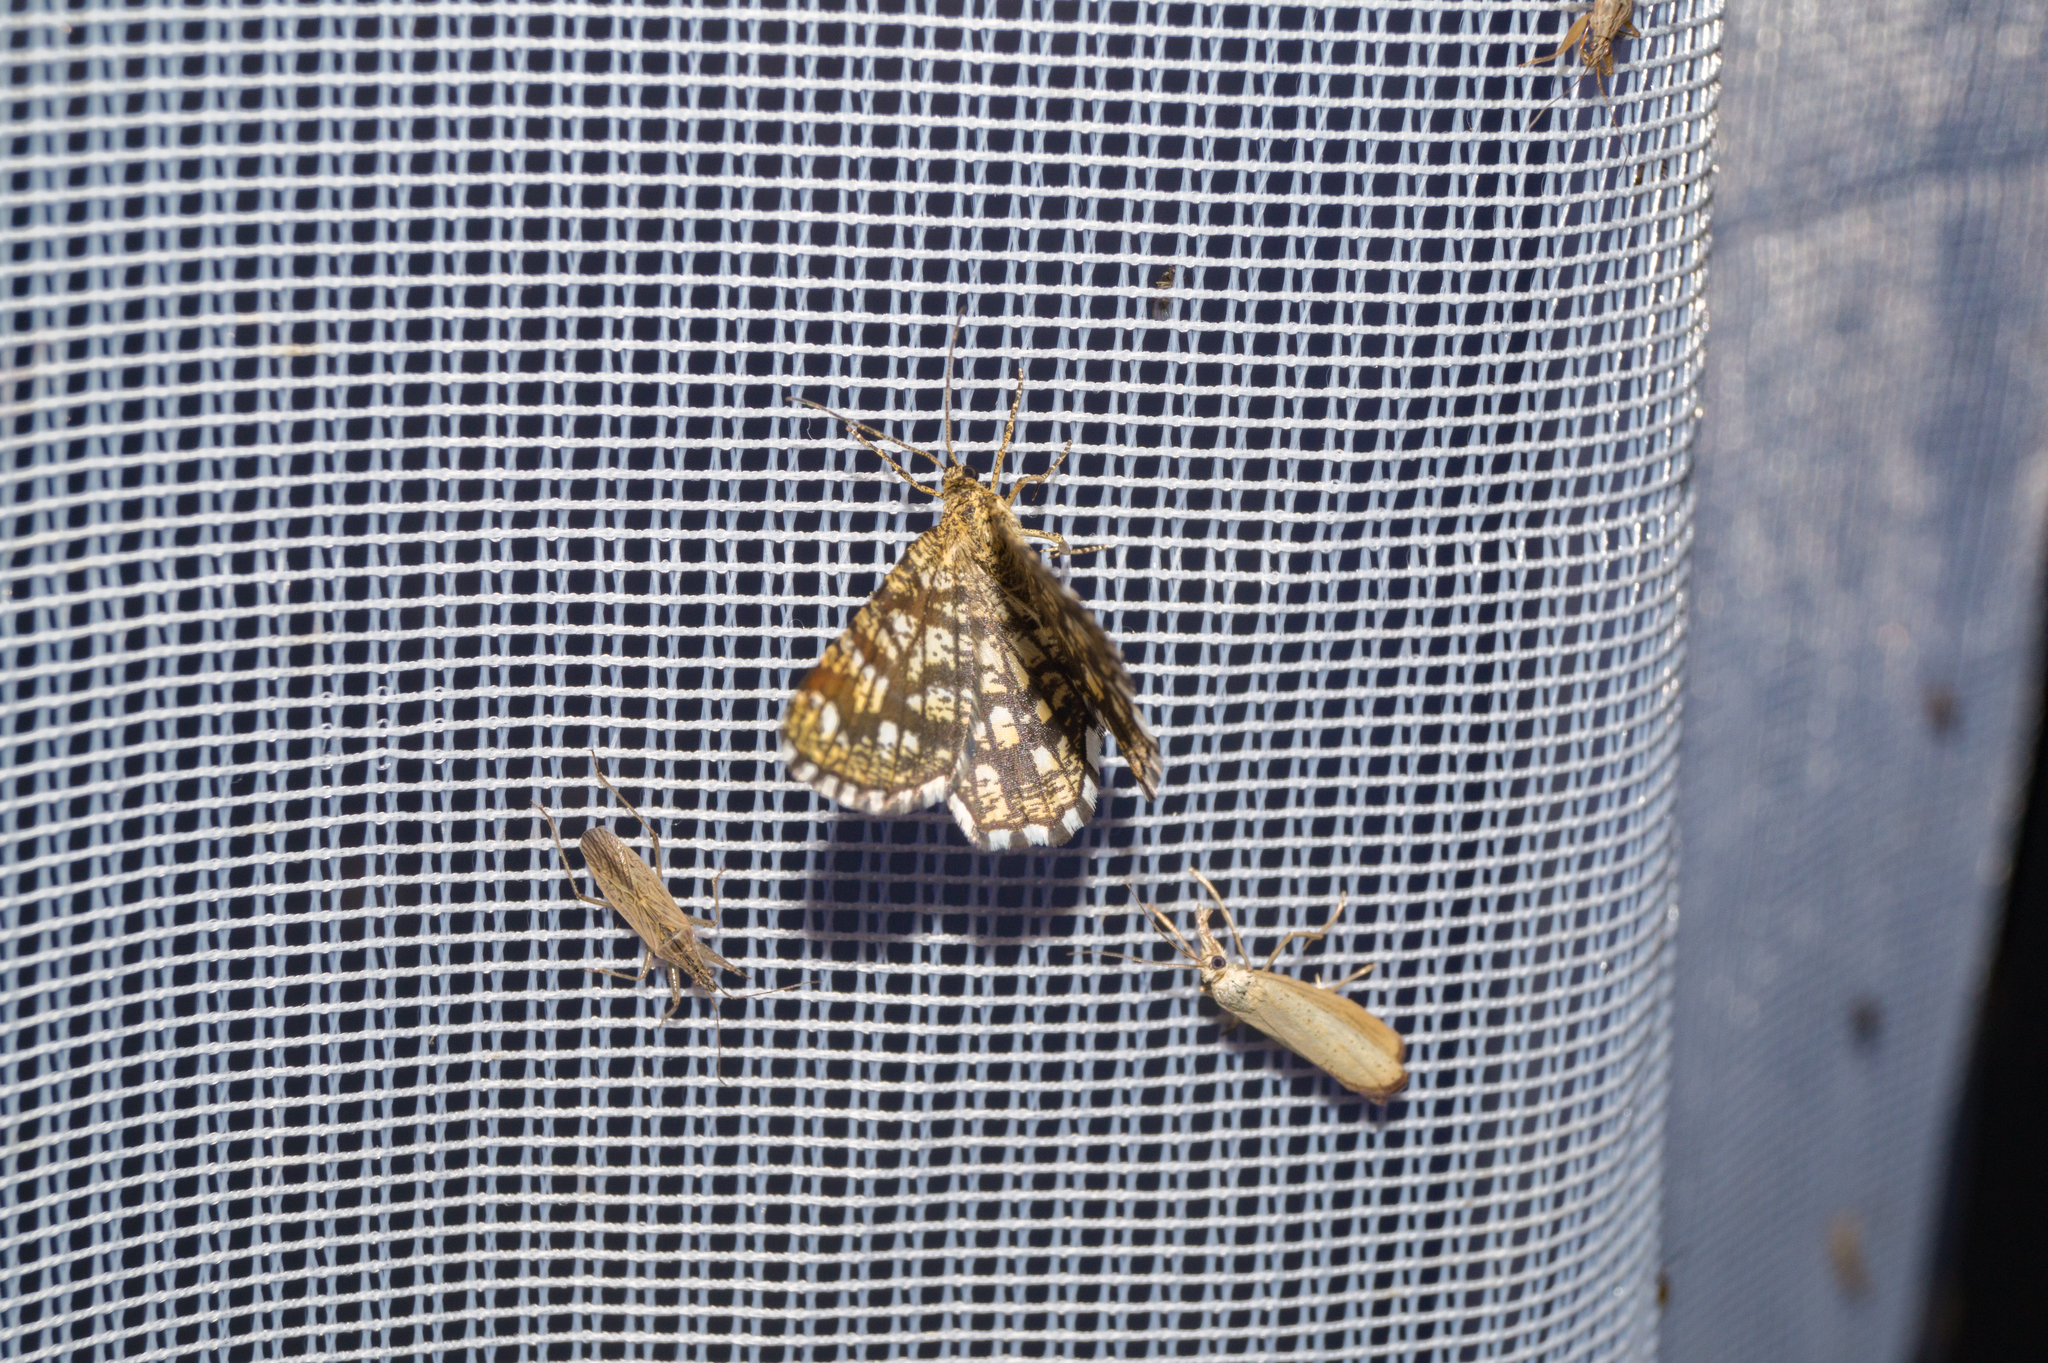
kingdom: Animalia
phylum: Arthropoda
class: Insecta
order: Lepidoptera
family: Geometridae
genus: Chiasmia
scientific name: Chiasmia clathrata
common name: Latticed heath
